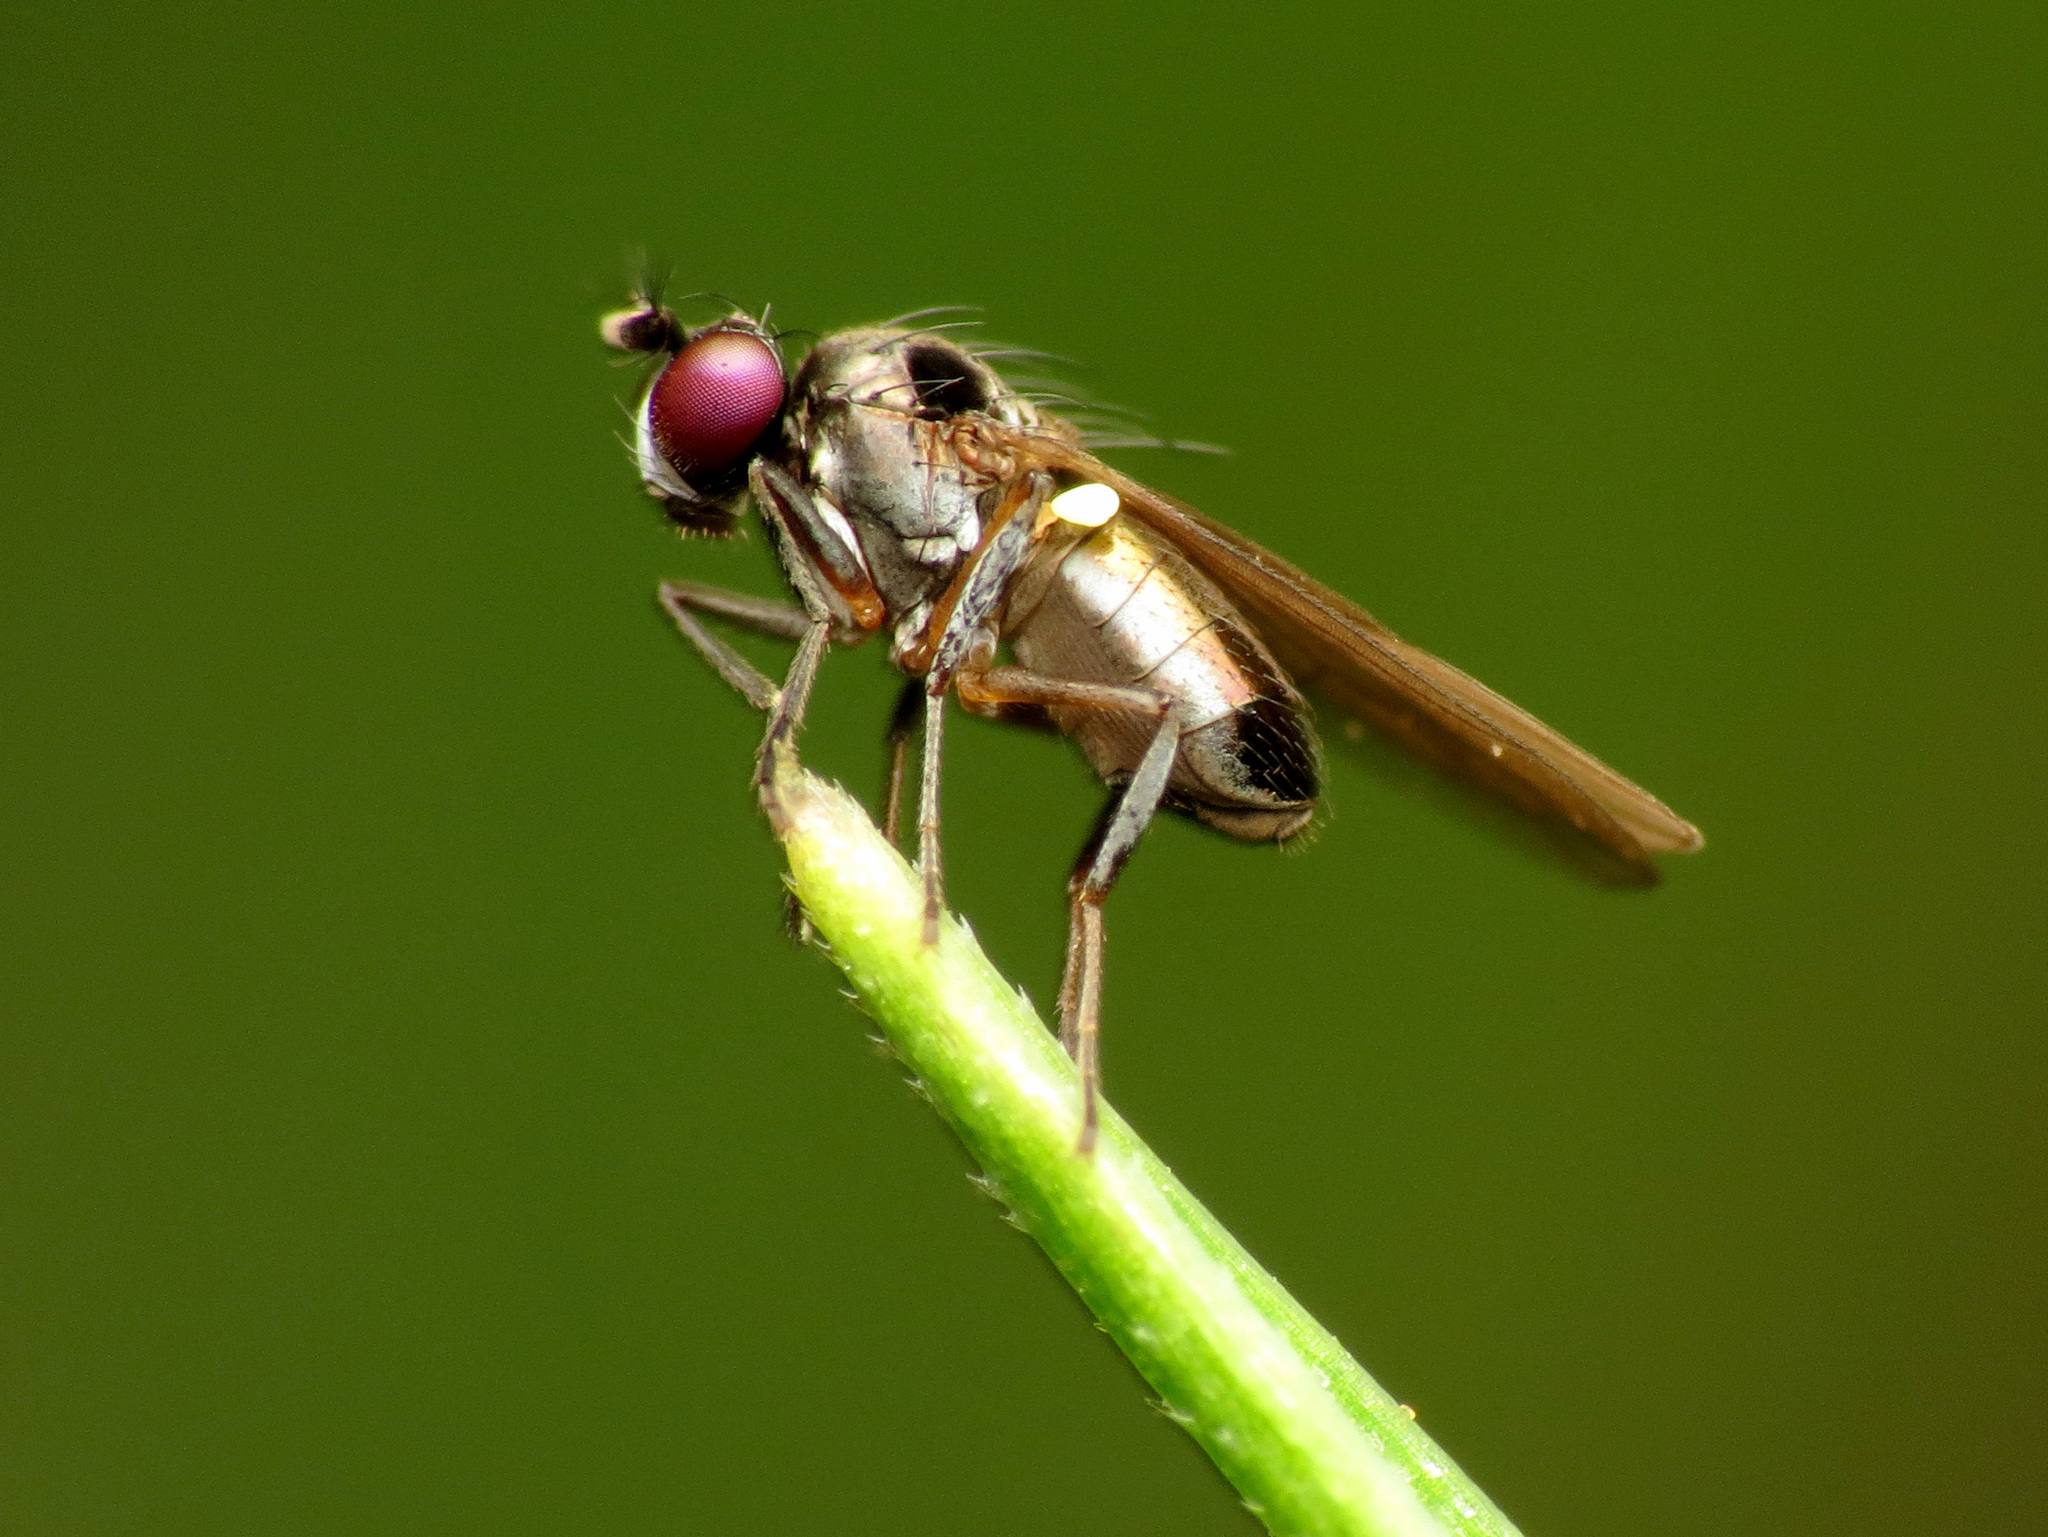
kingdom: Animalia
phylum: Arthropoda
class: Insecta
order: Diptera
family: Ephydridae
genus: Hydrellia
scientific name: Hydrellia tritici
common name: Shore fly
